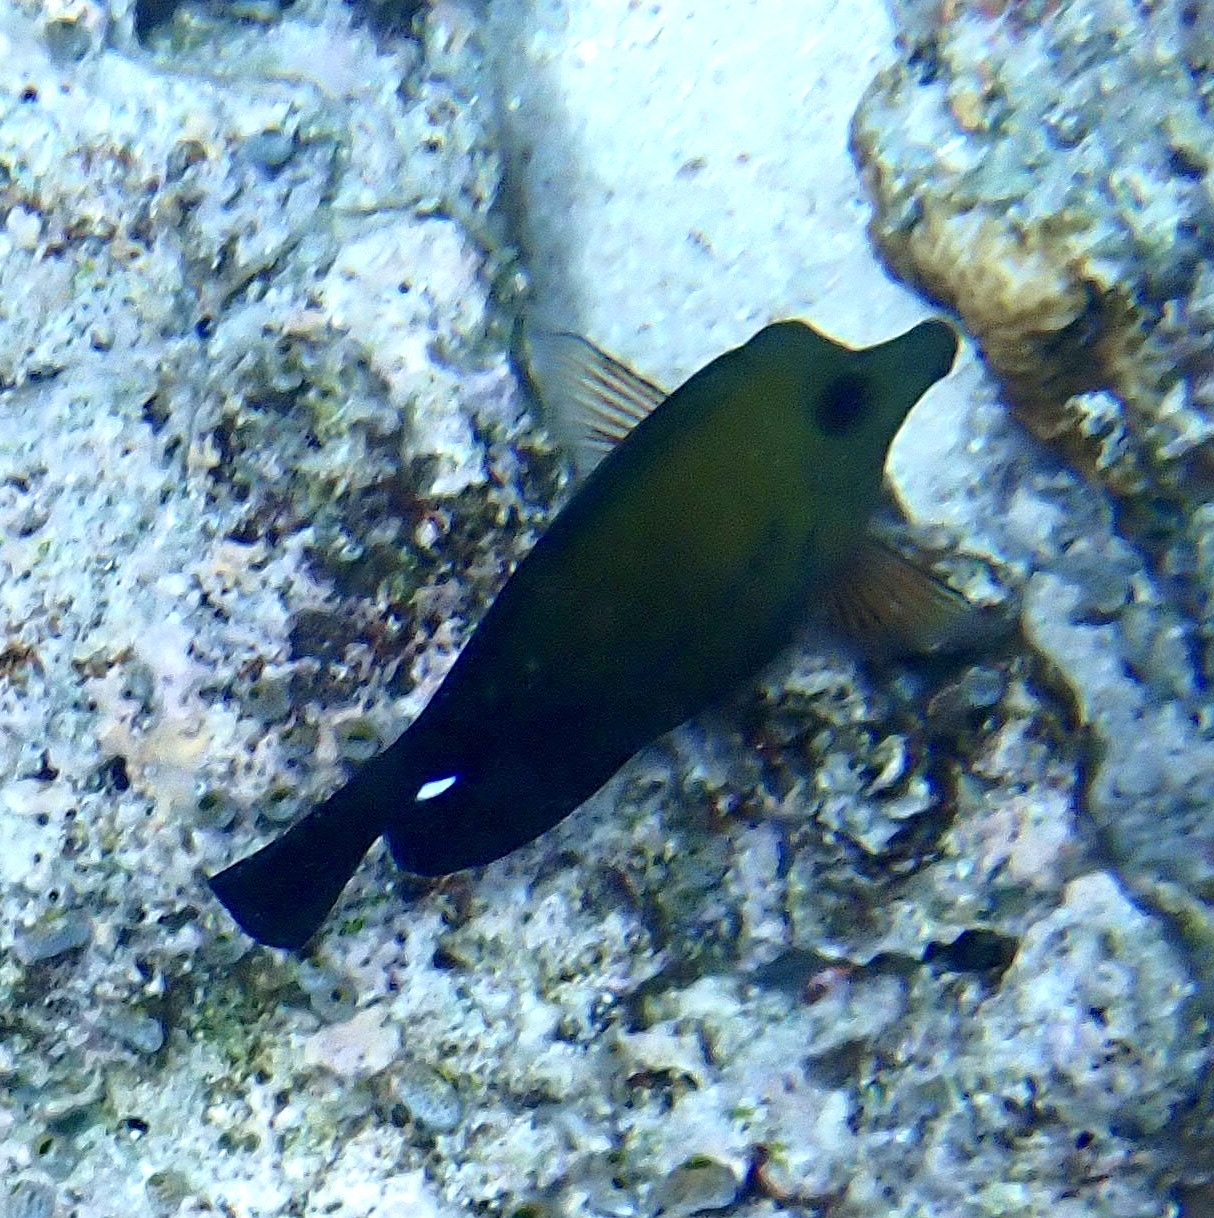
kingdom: Animalia
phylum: Chordata
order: Perciformes
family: Acanthuridae
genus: Zebrasoma
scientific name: Zebrasoma scopas
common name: Twotone tang
